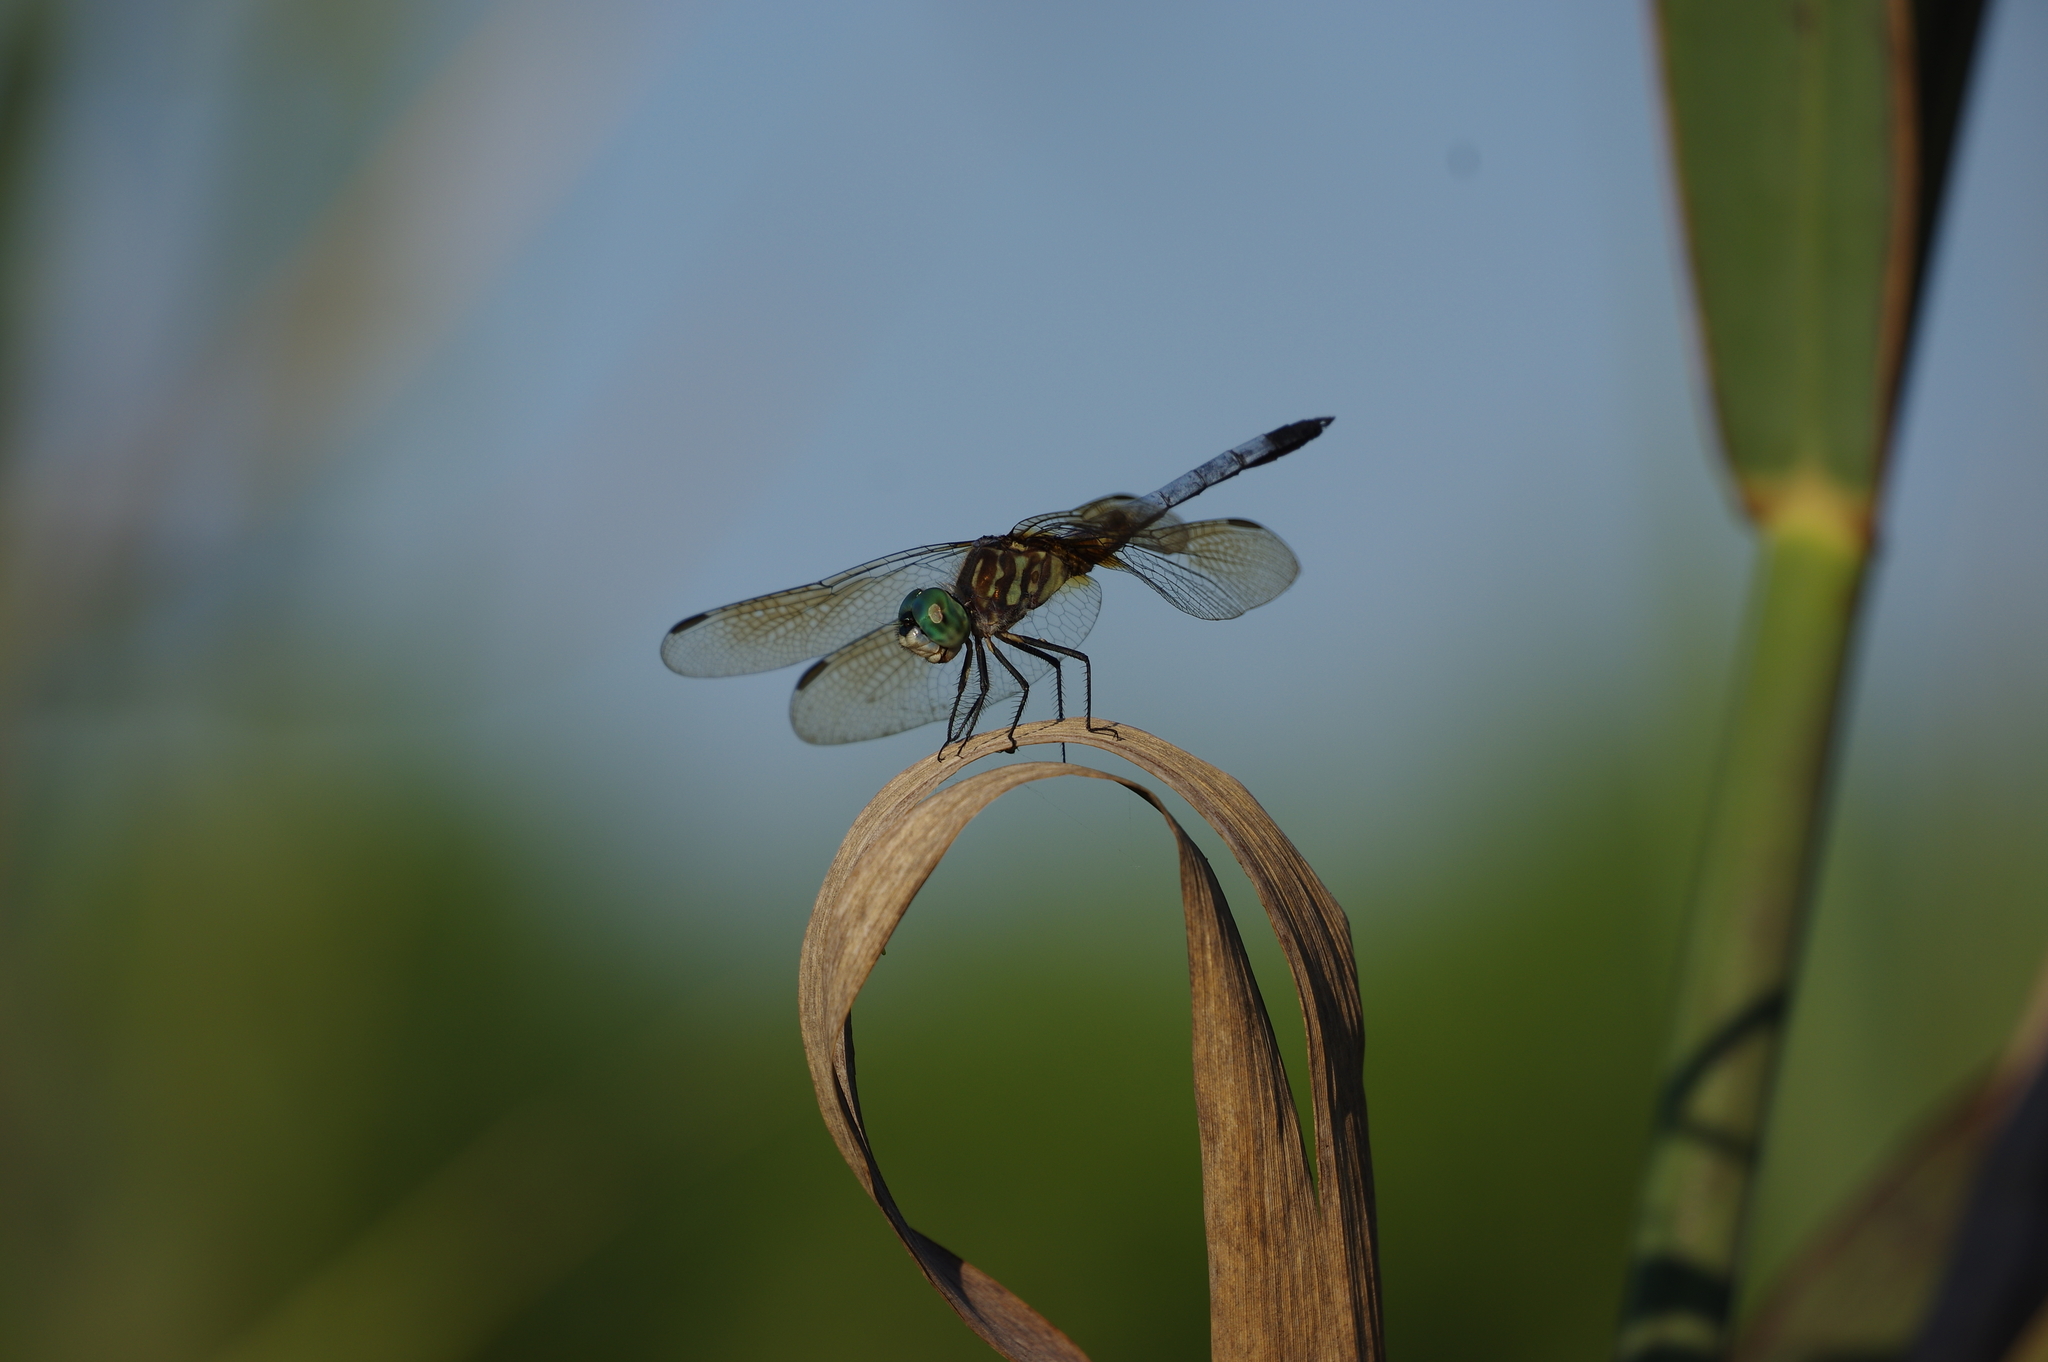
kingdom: Animalia
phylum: Arthropoda
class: Insecta
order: Odonata
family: Libellulidae
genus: Pachydiplax
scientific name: Pachydiplax longipennis
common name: Blue dasher
